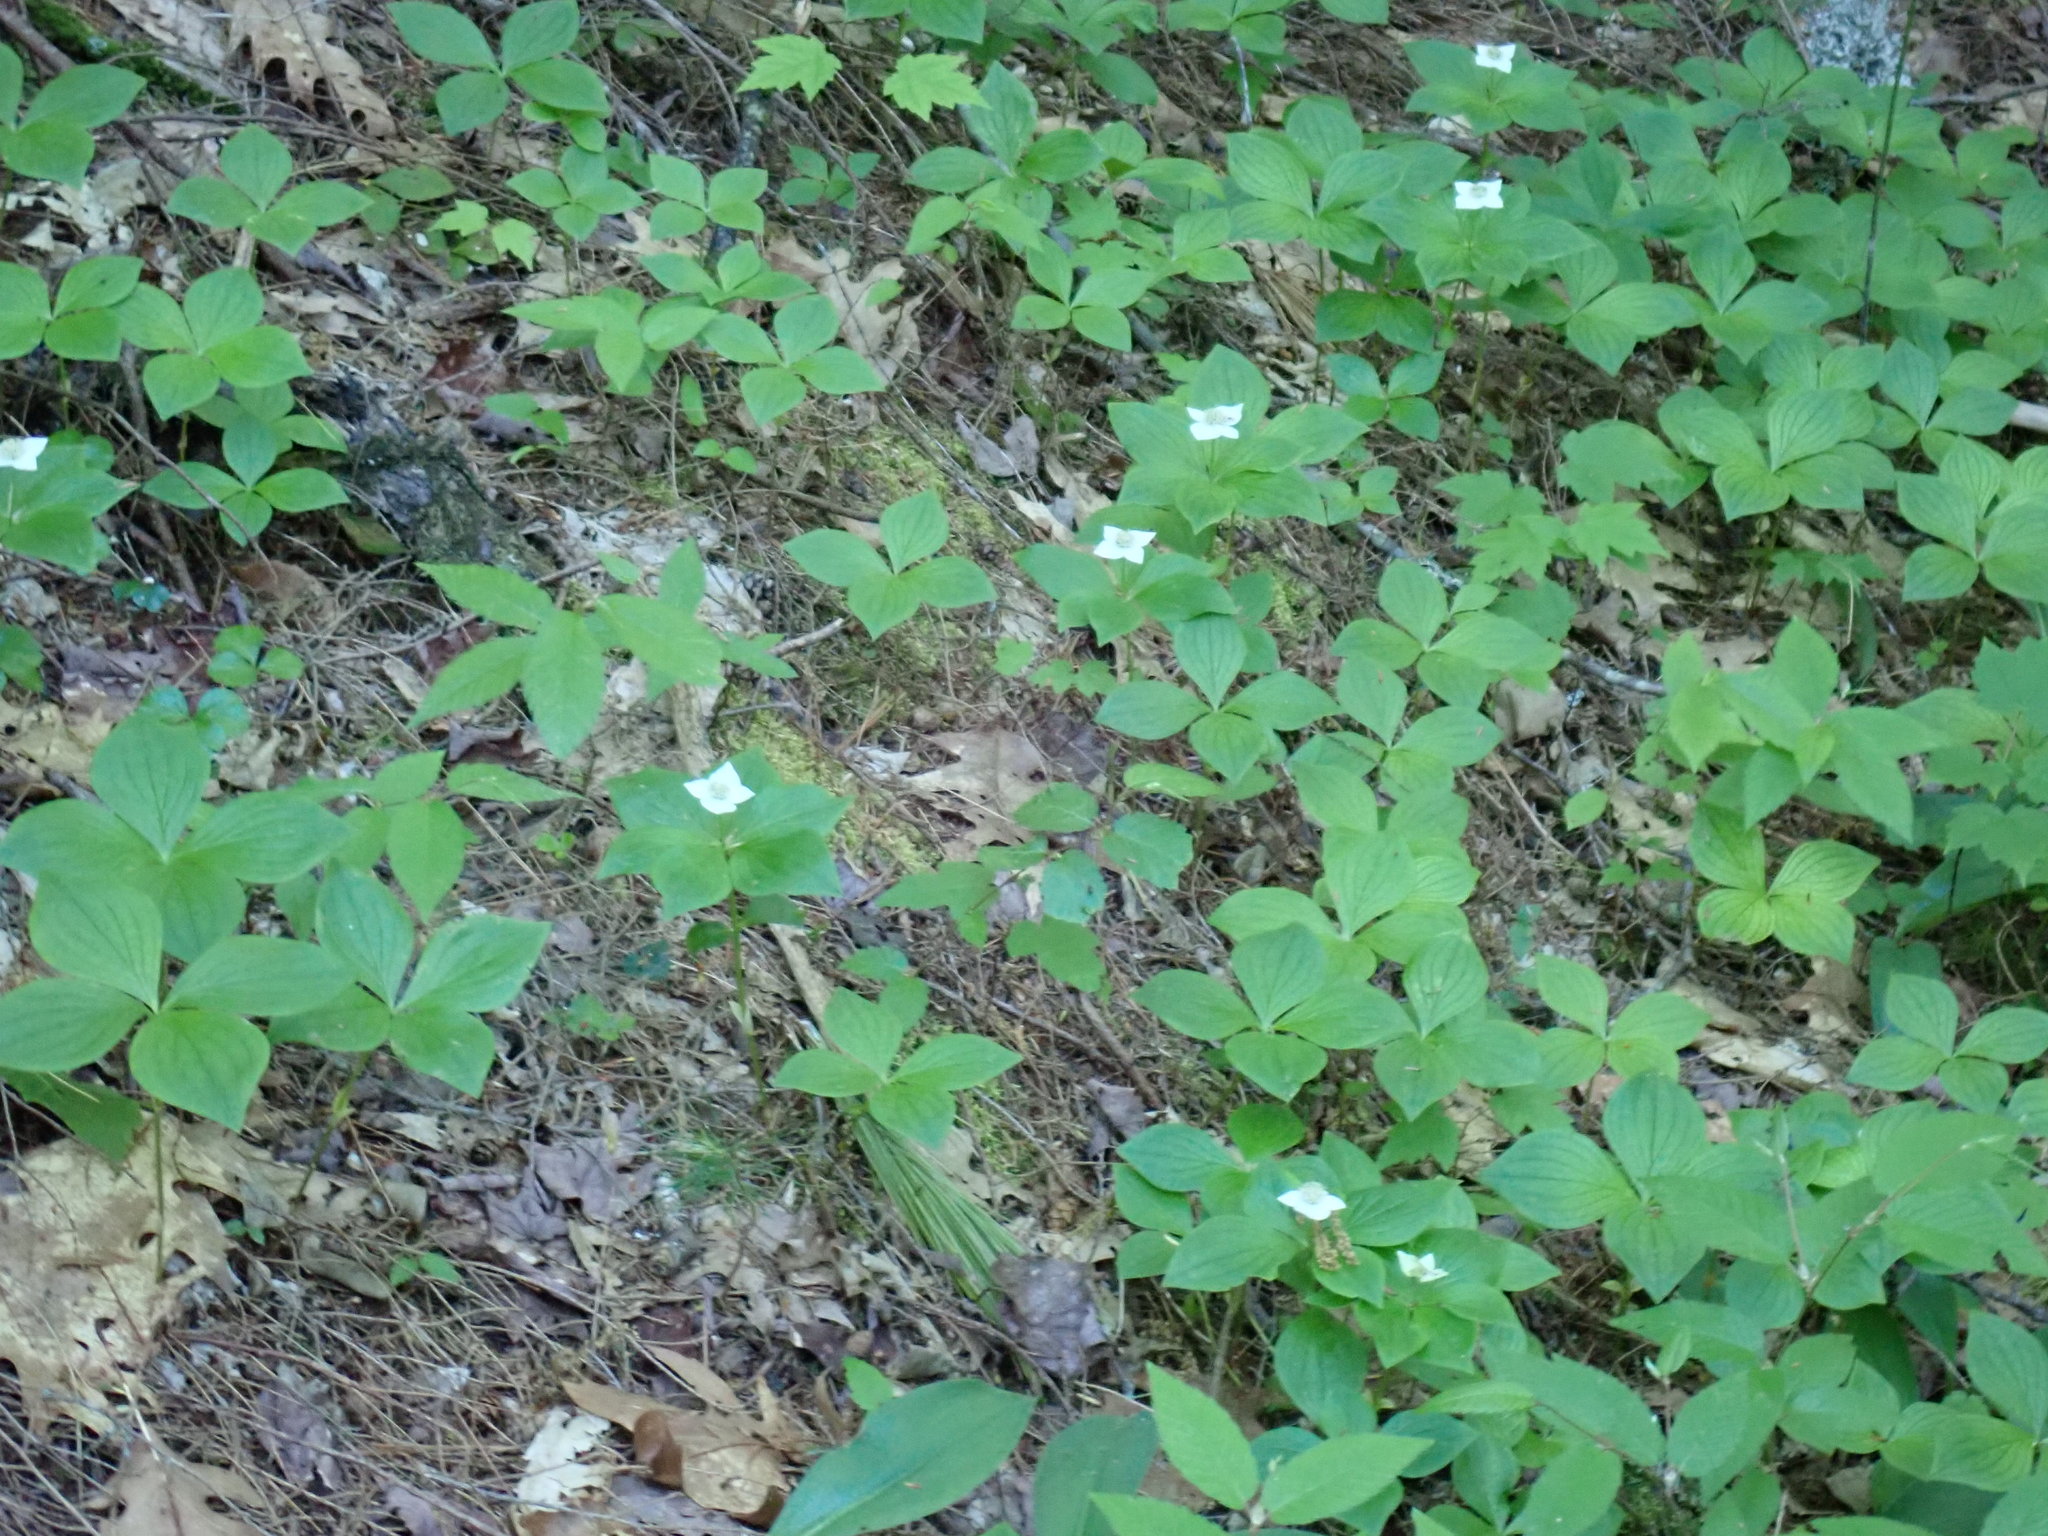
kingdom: Plantae
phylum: Tracheophyta
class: Magnoliopsida
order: Cornales
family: Cornaceae
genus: Cornus
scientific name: Cornus canadensis
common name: Creeping dogwood
